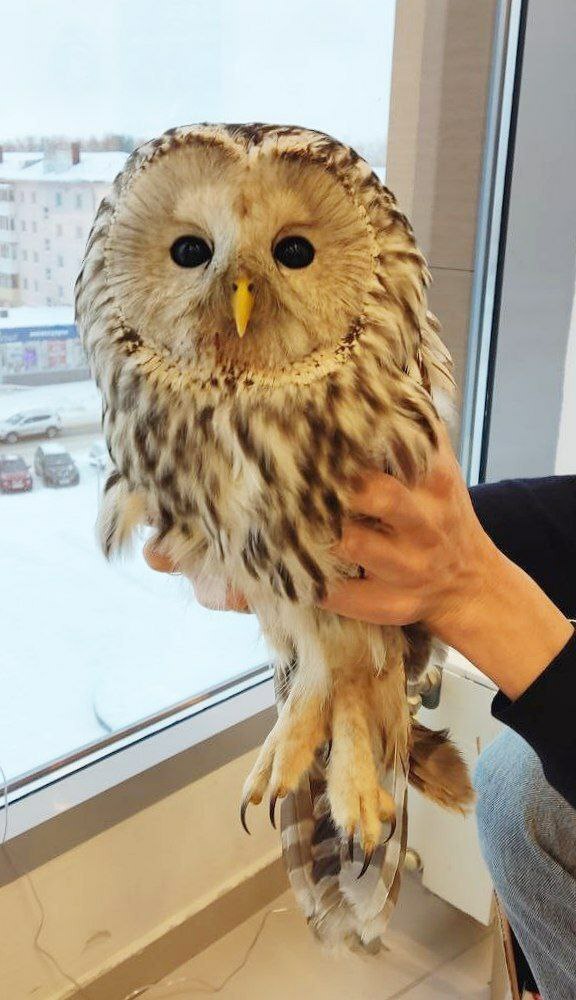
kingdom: Animalia
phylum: Chordata
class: Aves
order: Strigiformes
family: Strigidae
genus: Strix
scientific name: Strix uralensis
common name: Ural owl
